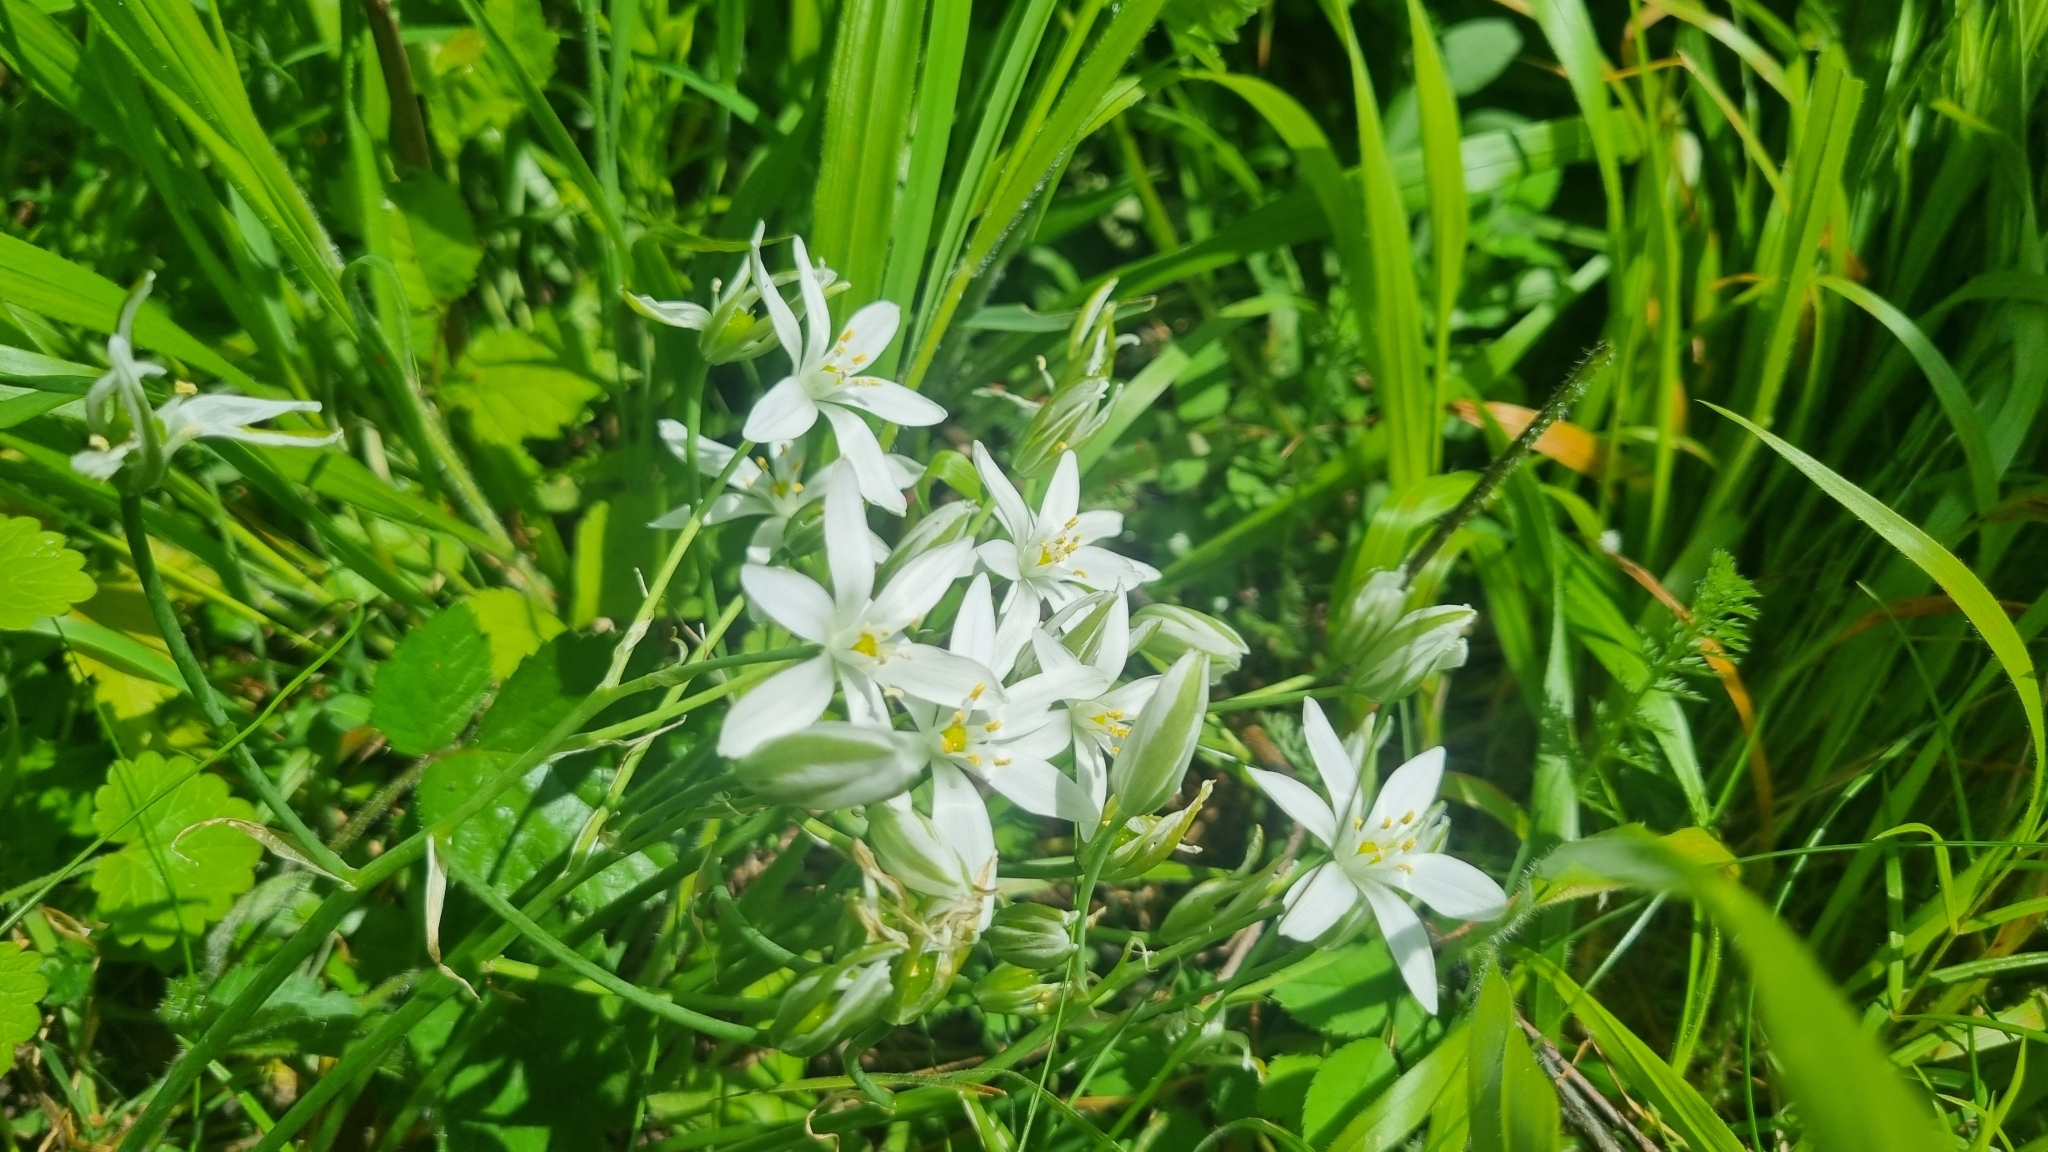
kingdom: Plantae
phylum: Tracheophyta
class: Liliopsida
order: Asparagales
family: Asparagaceae
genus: Ornithogalum
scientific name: Ornithogalum umbellatum
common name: Garden star-of-bethlehem
